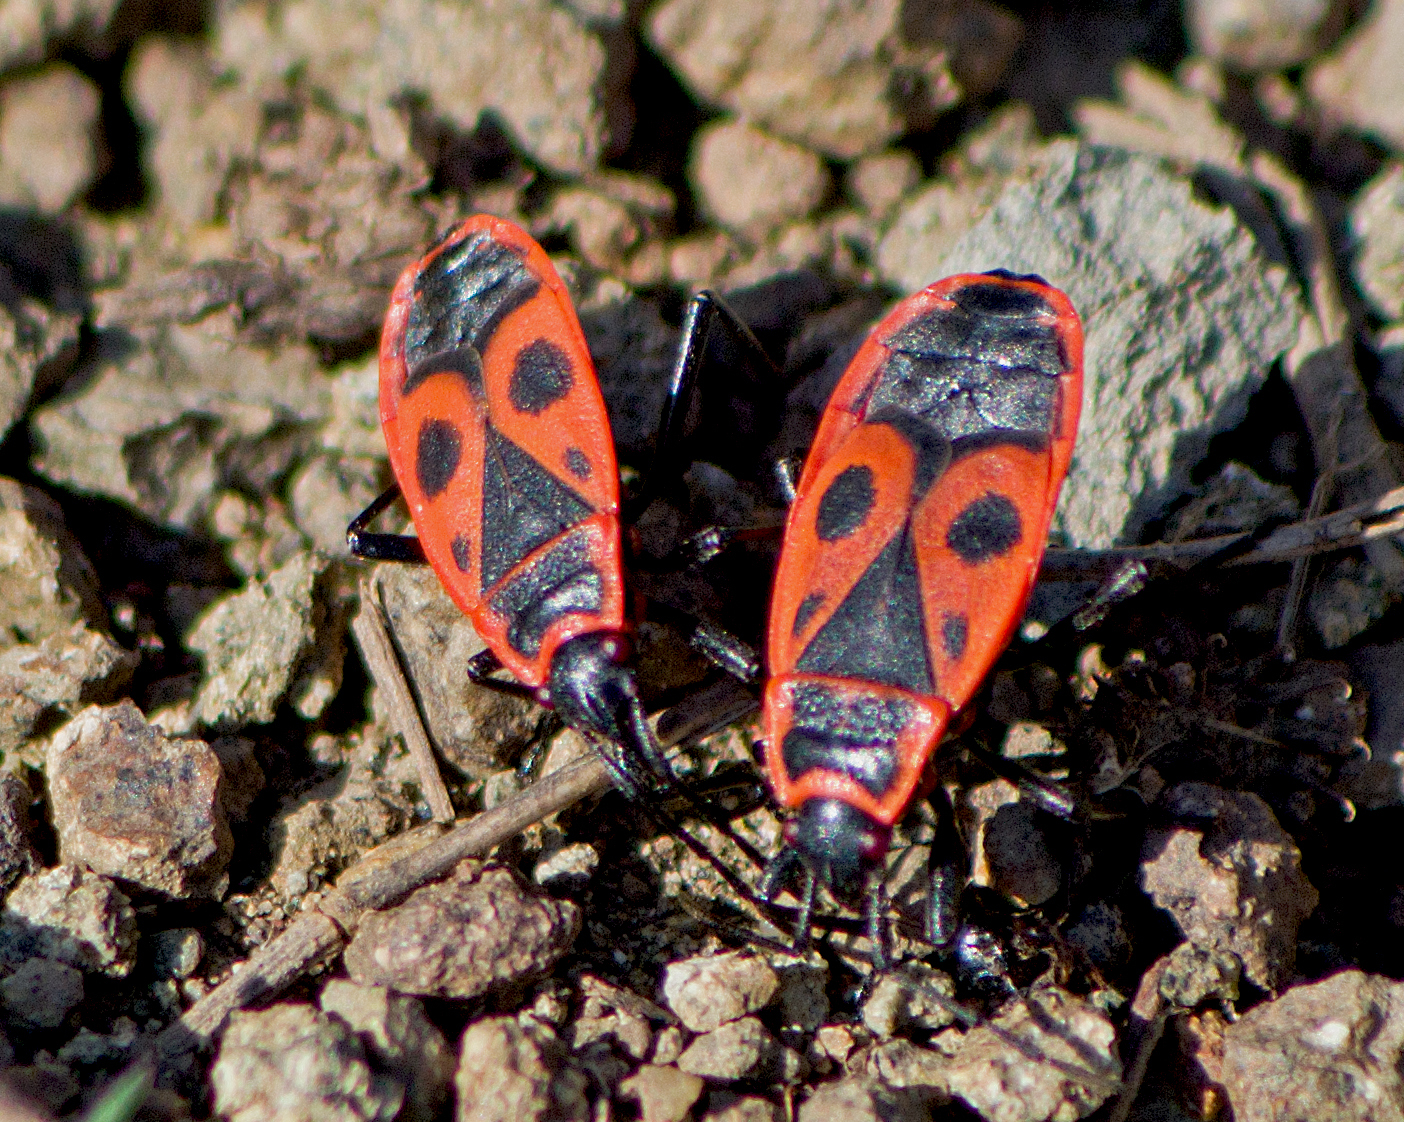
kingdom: Animalia
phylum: Arthropoda
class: Insecta
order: Hemiptera
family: Pyrrhocoridae
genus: Pyrrhocoris
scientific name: Pyrrhocoris apterus
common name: Firebug
